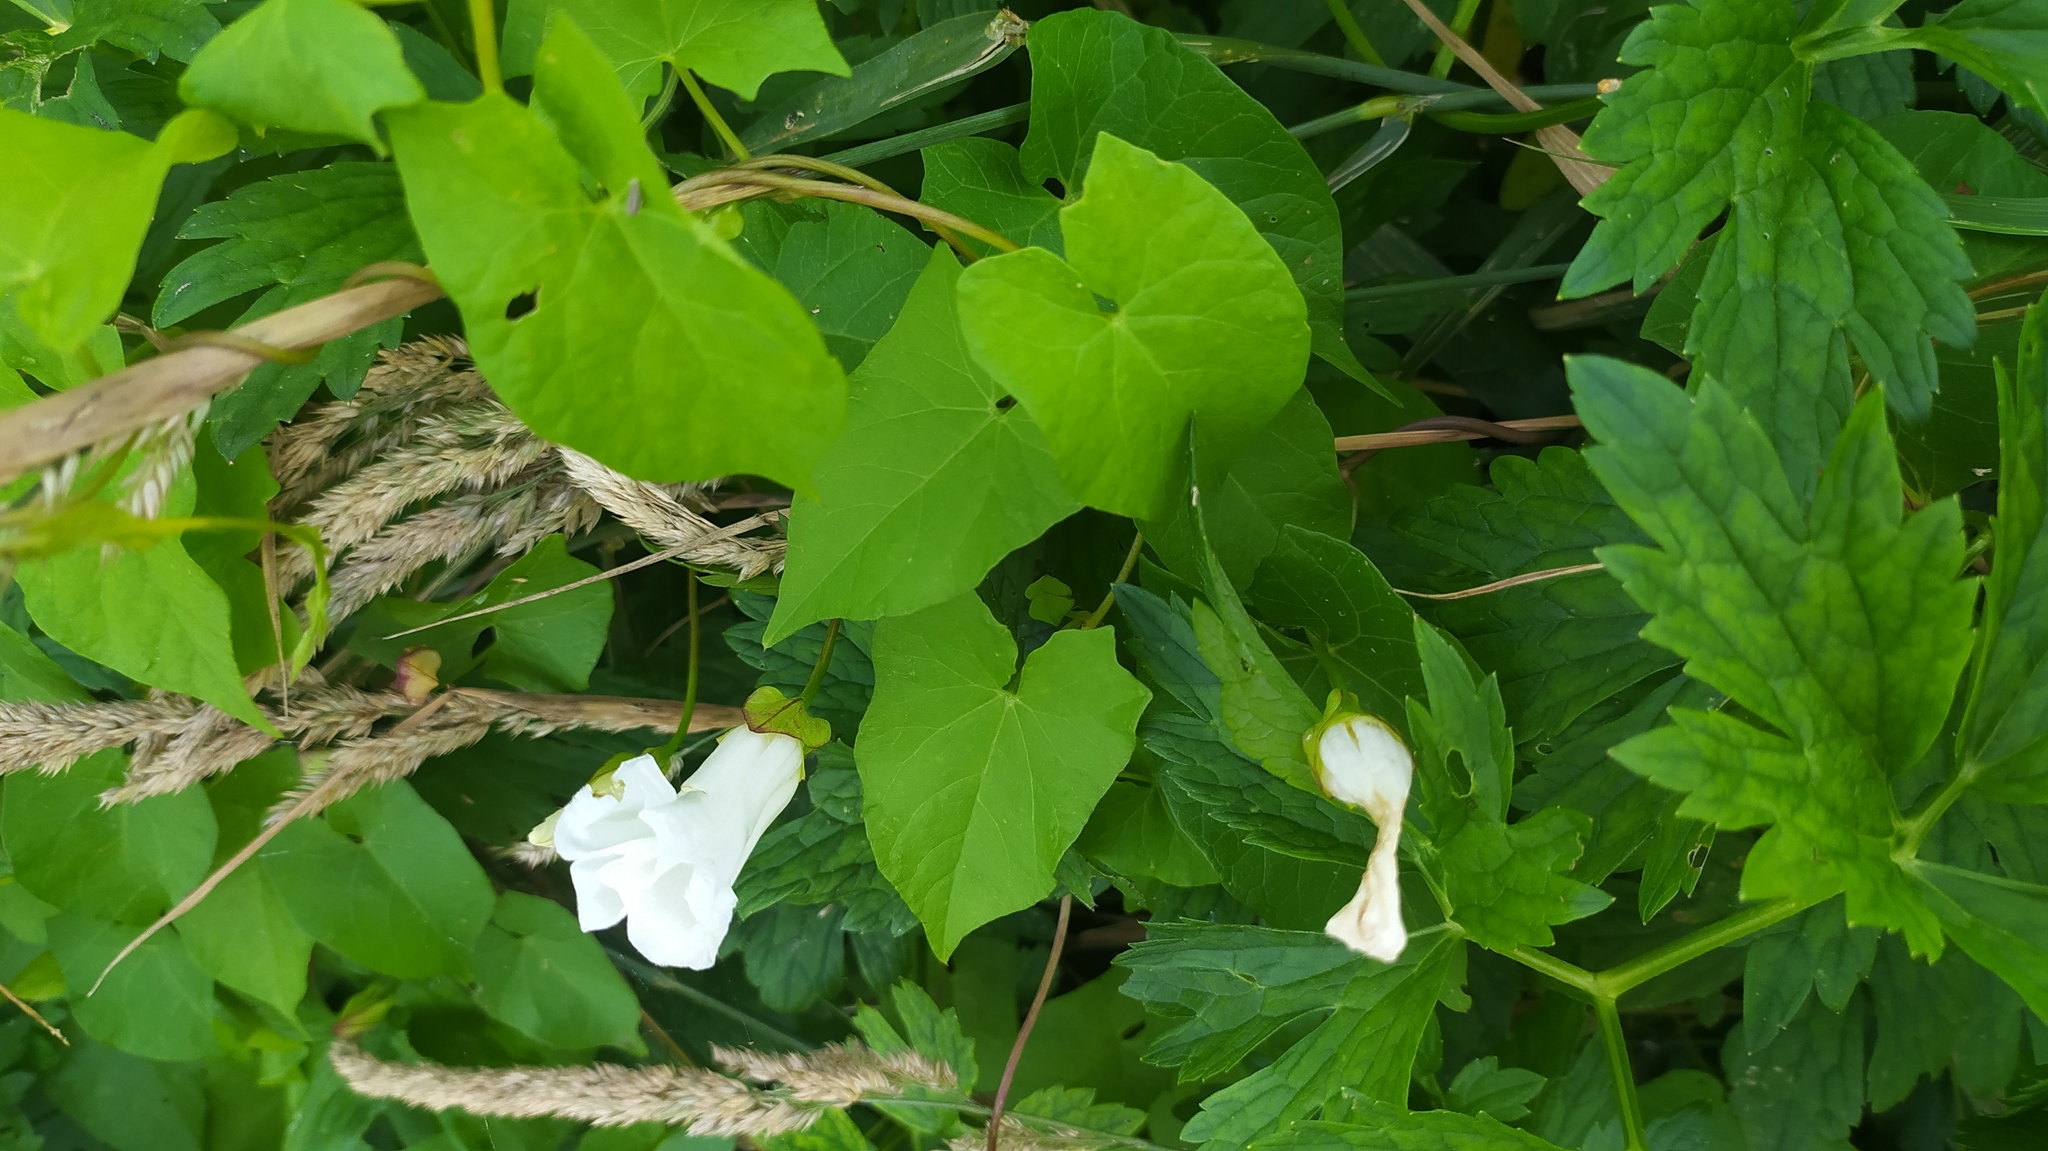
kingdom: Plantae
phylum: Tracheophyta
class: Magnoliopsida
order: Solanales
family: Convolvulaceae
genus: Calystegia
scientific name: Calystegia sepium
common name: Hedge bindweed
